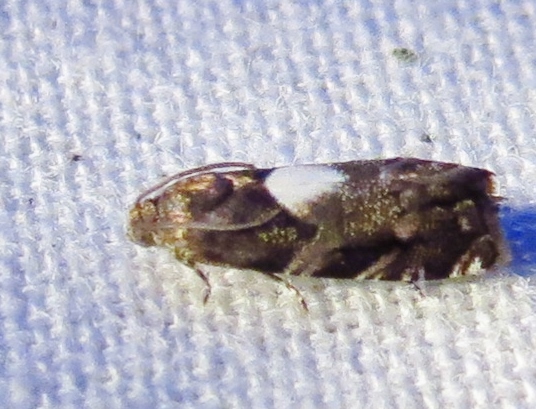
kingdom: Animalia
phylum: Arthropoda
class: Insecta
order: Lepidoptera
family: Tortricidae
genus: Cydia
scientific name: Cydia albimaculana
